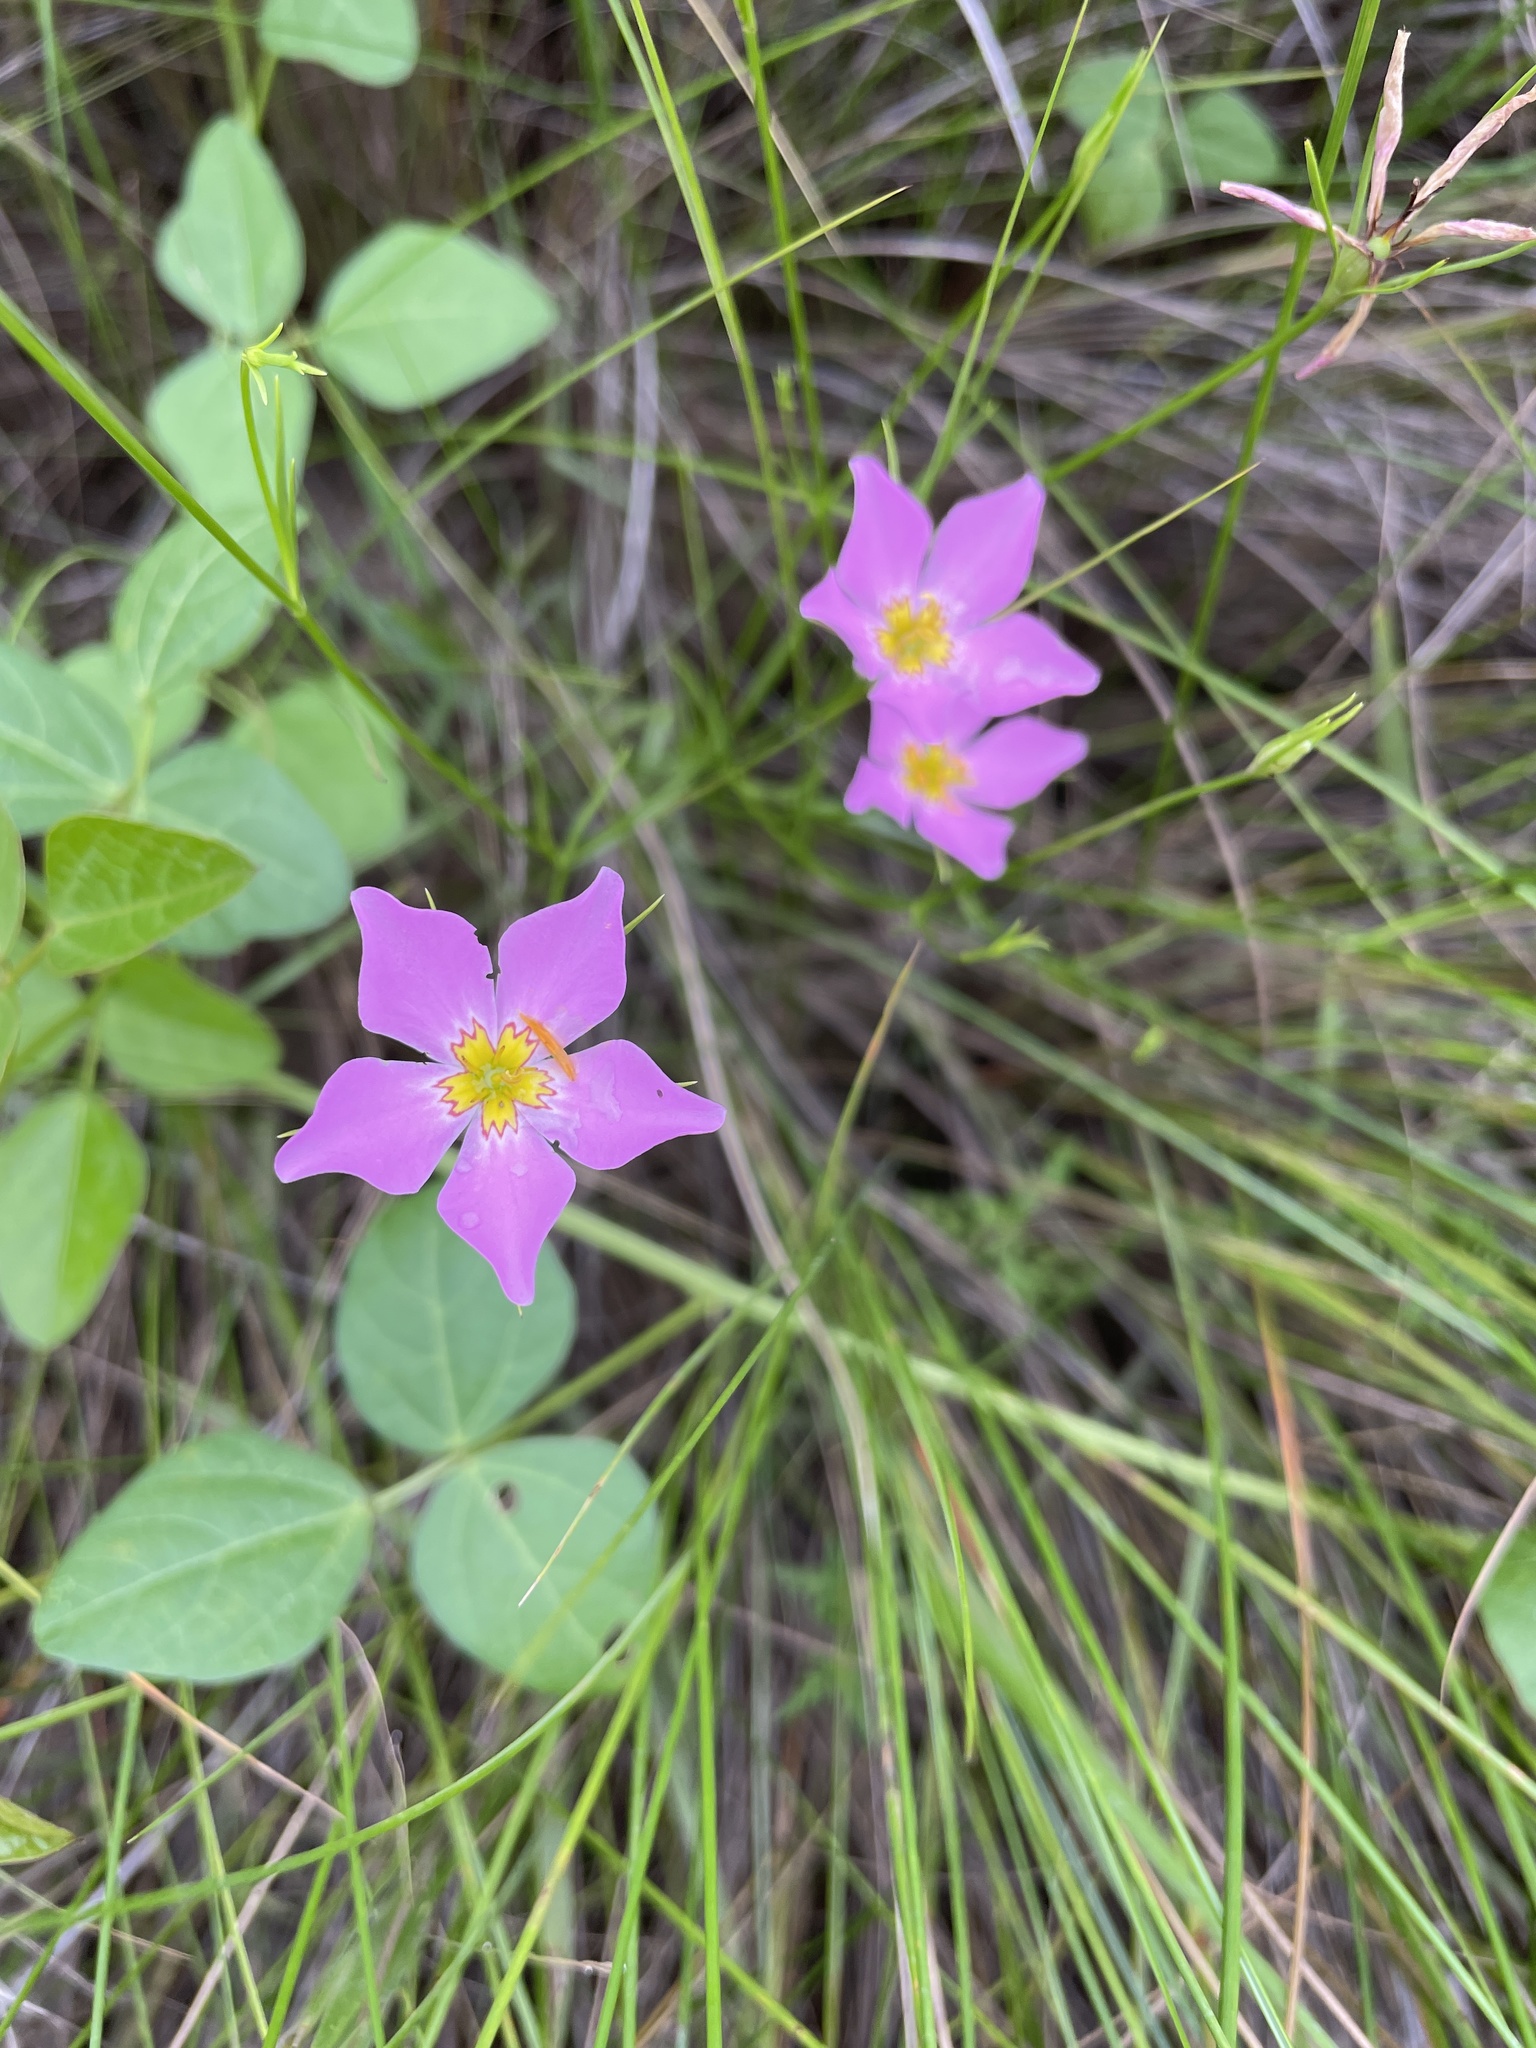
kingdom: Plantae
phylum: Tracheophyta
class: Magnoliopsida
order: Gentianales
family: Gentianaceae
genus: Sabatia
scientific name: Sabatia campanulata
